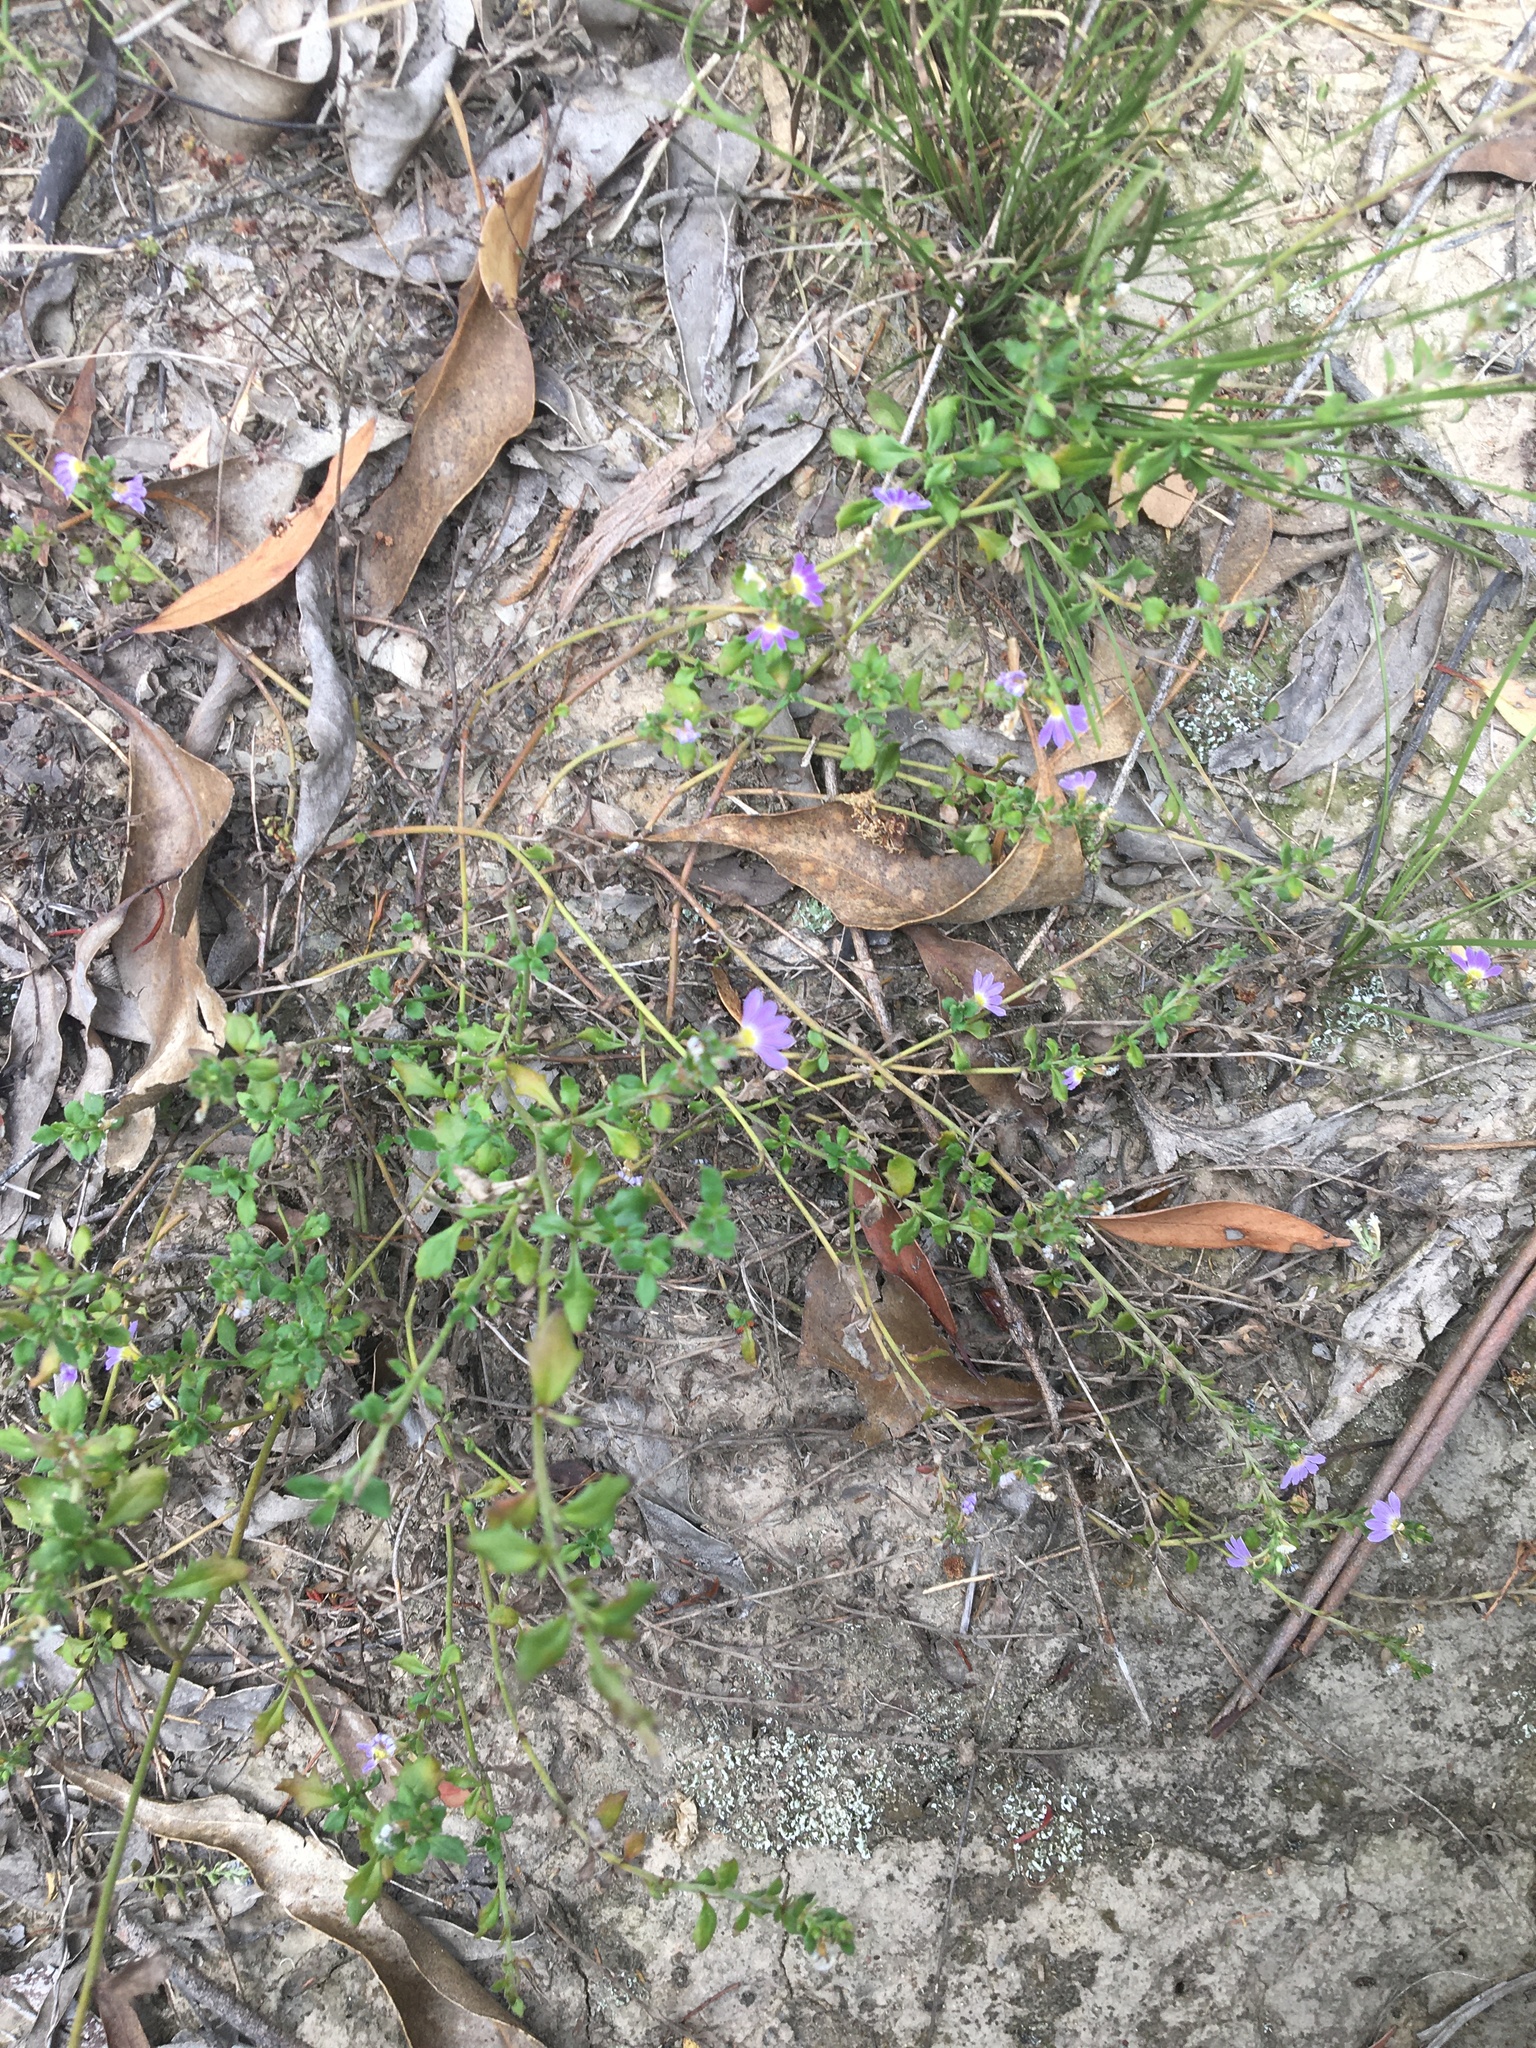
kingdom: Plantae
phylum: Tracheophyta
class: Magnoliopsida
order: Asterales
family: Goodeniaceae
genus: Scaevola
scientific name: Scaevola albida
